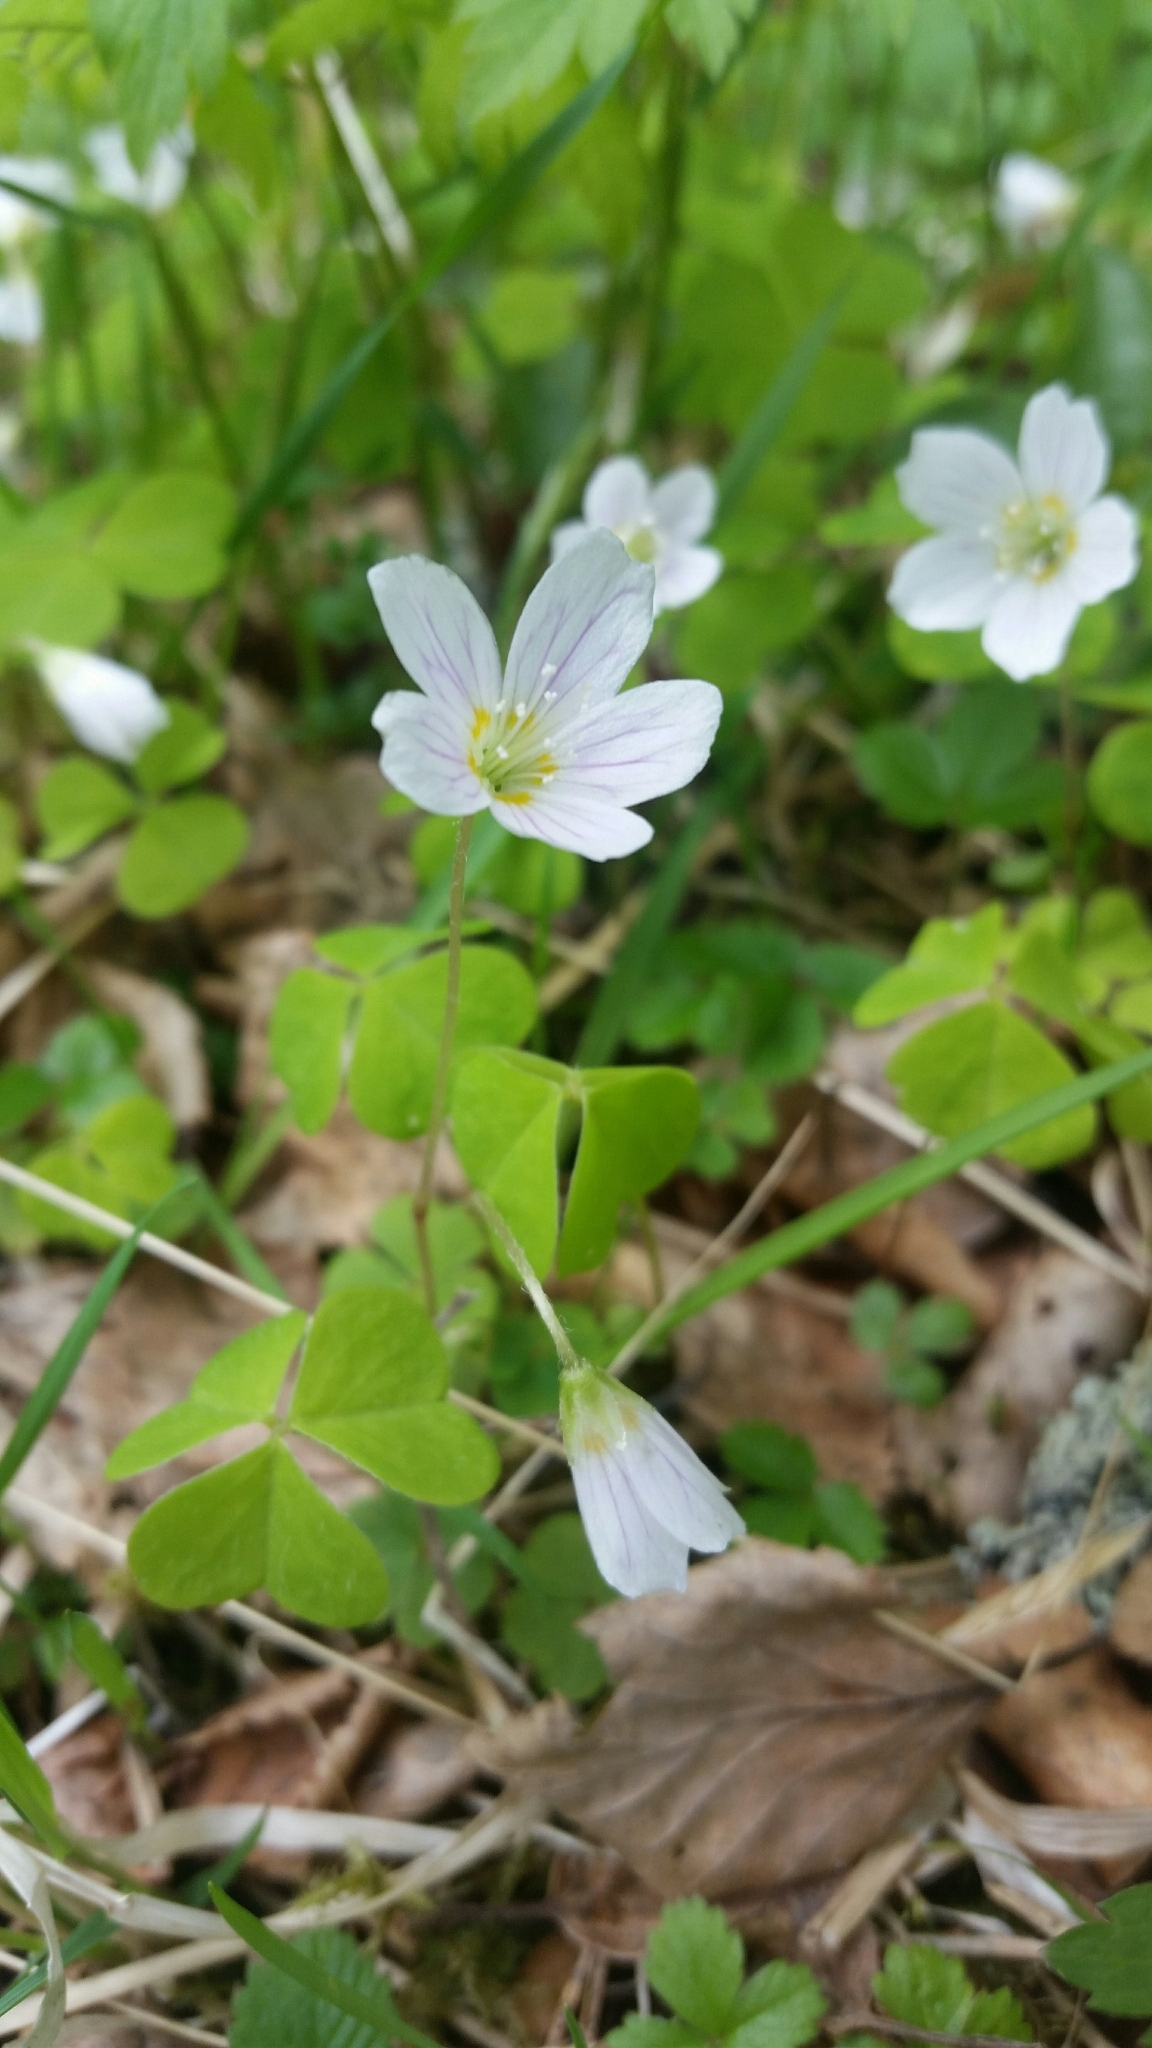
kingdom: Plantae
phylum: Tracheophyta
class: Magnoliopsida
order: Oxalidales
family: Oxalidaceae
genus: Oxalis
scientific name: Oxalis acetosella
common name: Wood-sorrel
